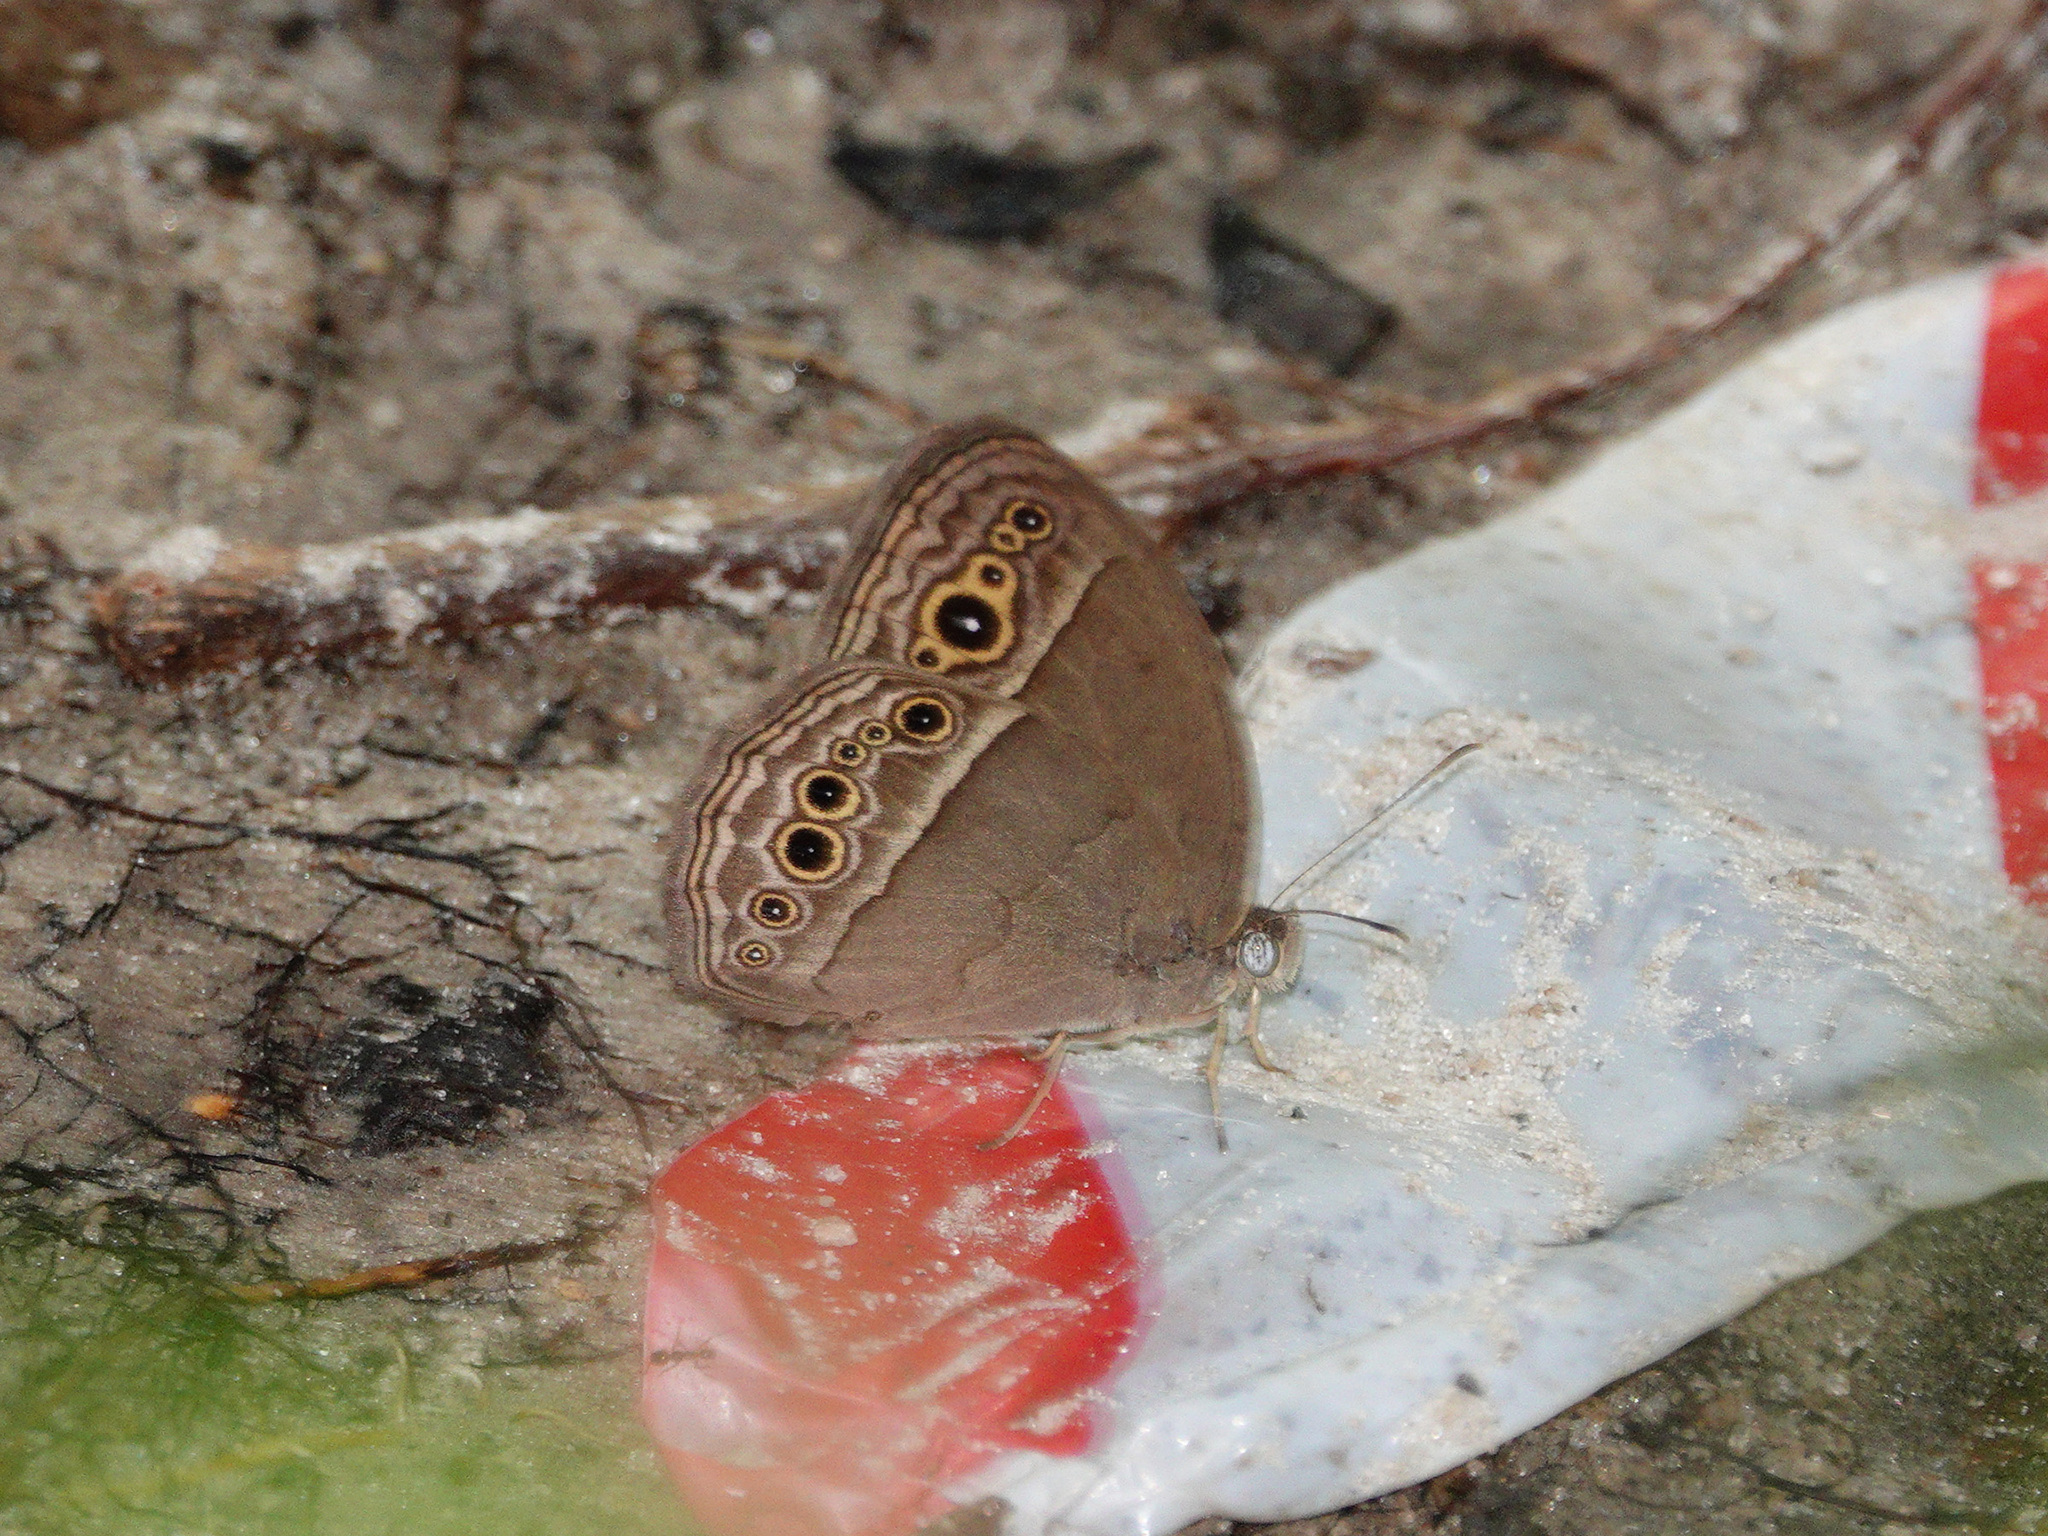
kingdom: Animalia
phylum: Arthropoda
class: Insecta
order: Lepidoptera
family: Nymphalidae
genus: Mycalesis
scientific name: Mycalesis perseoides
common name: Burmese bushbrown
